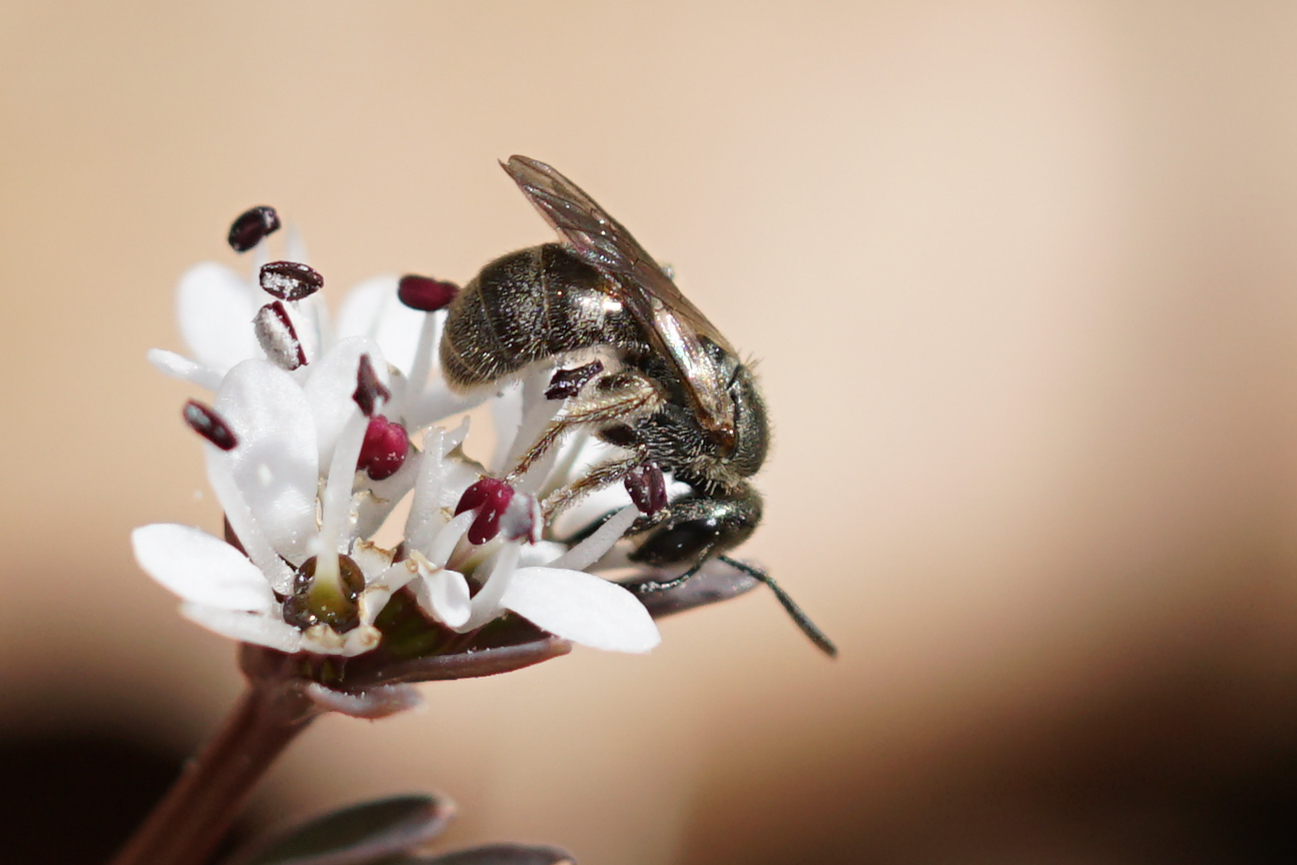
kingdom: Animalia
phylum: Arthropoda
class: Insecta
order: Hymenoptera
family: Halictidae
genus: Dialictus
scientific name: Dialictus
